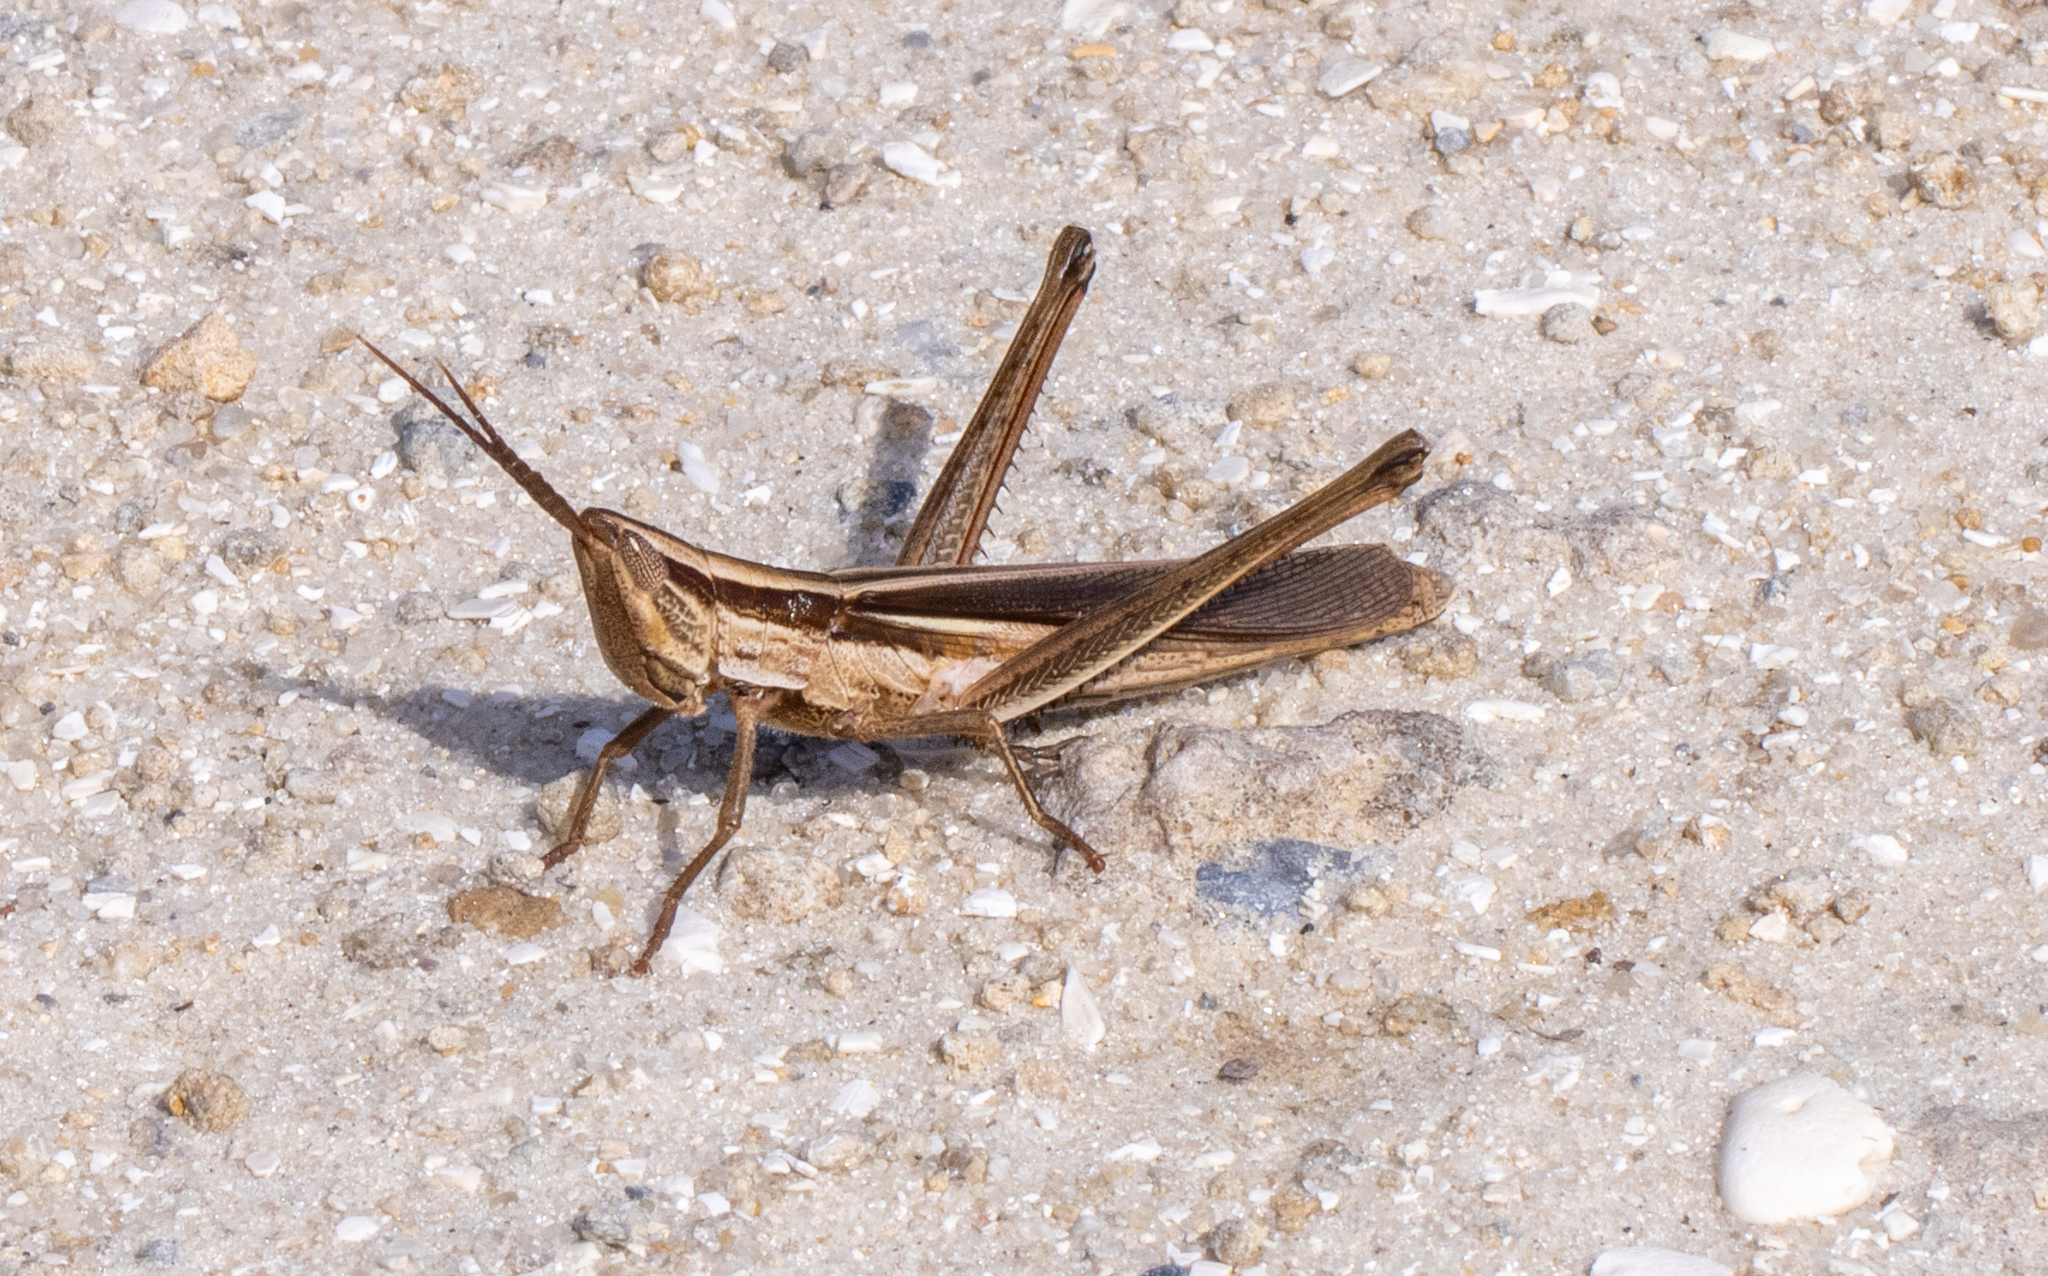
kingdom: Animalia
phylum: Arthropoda
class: Insecta
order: Orthoptera
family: Acrididae
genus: Mermiria
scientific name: Mermiria intertexta
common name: Eastern mermiria grasshopper
